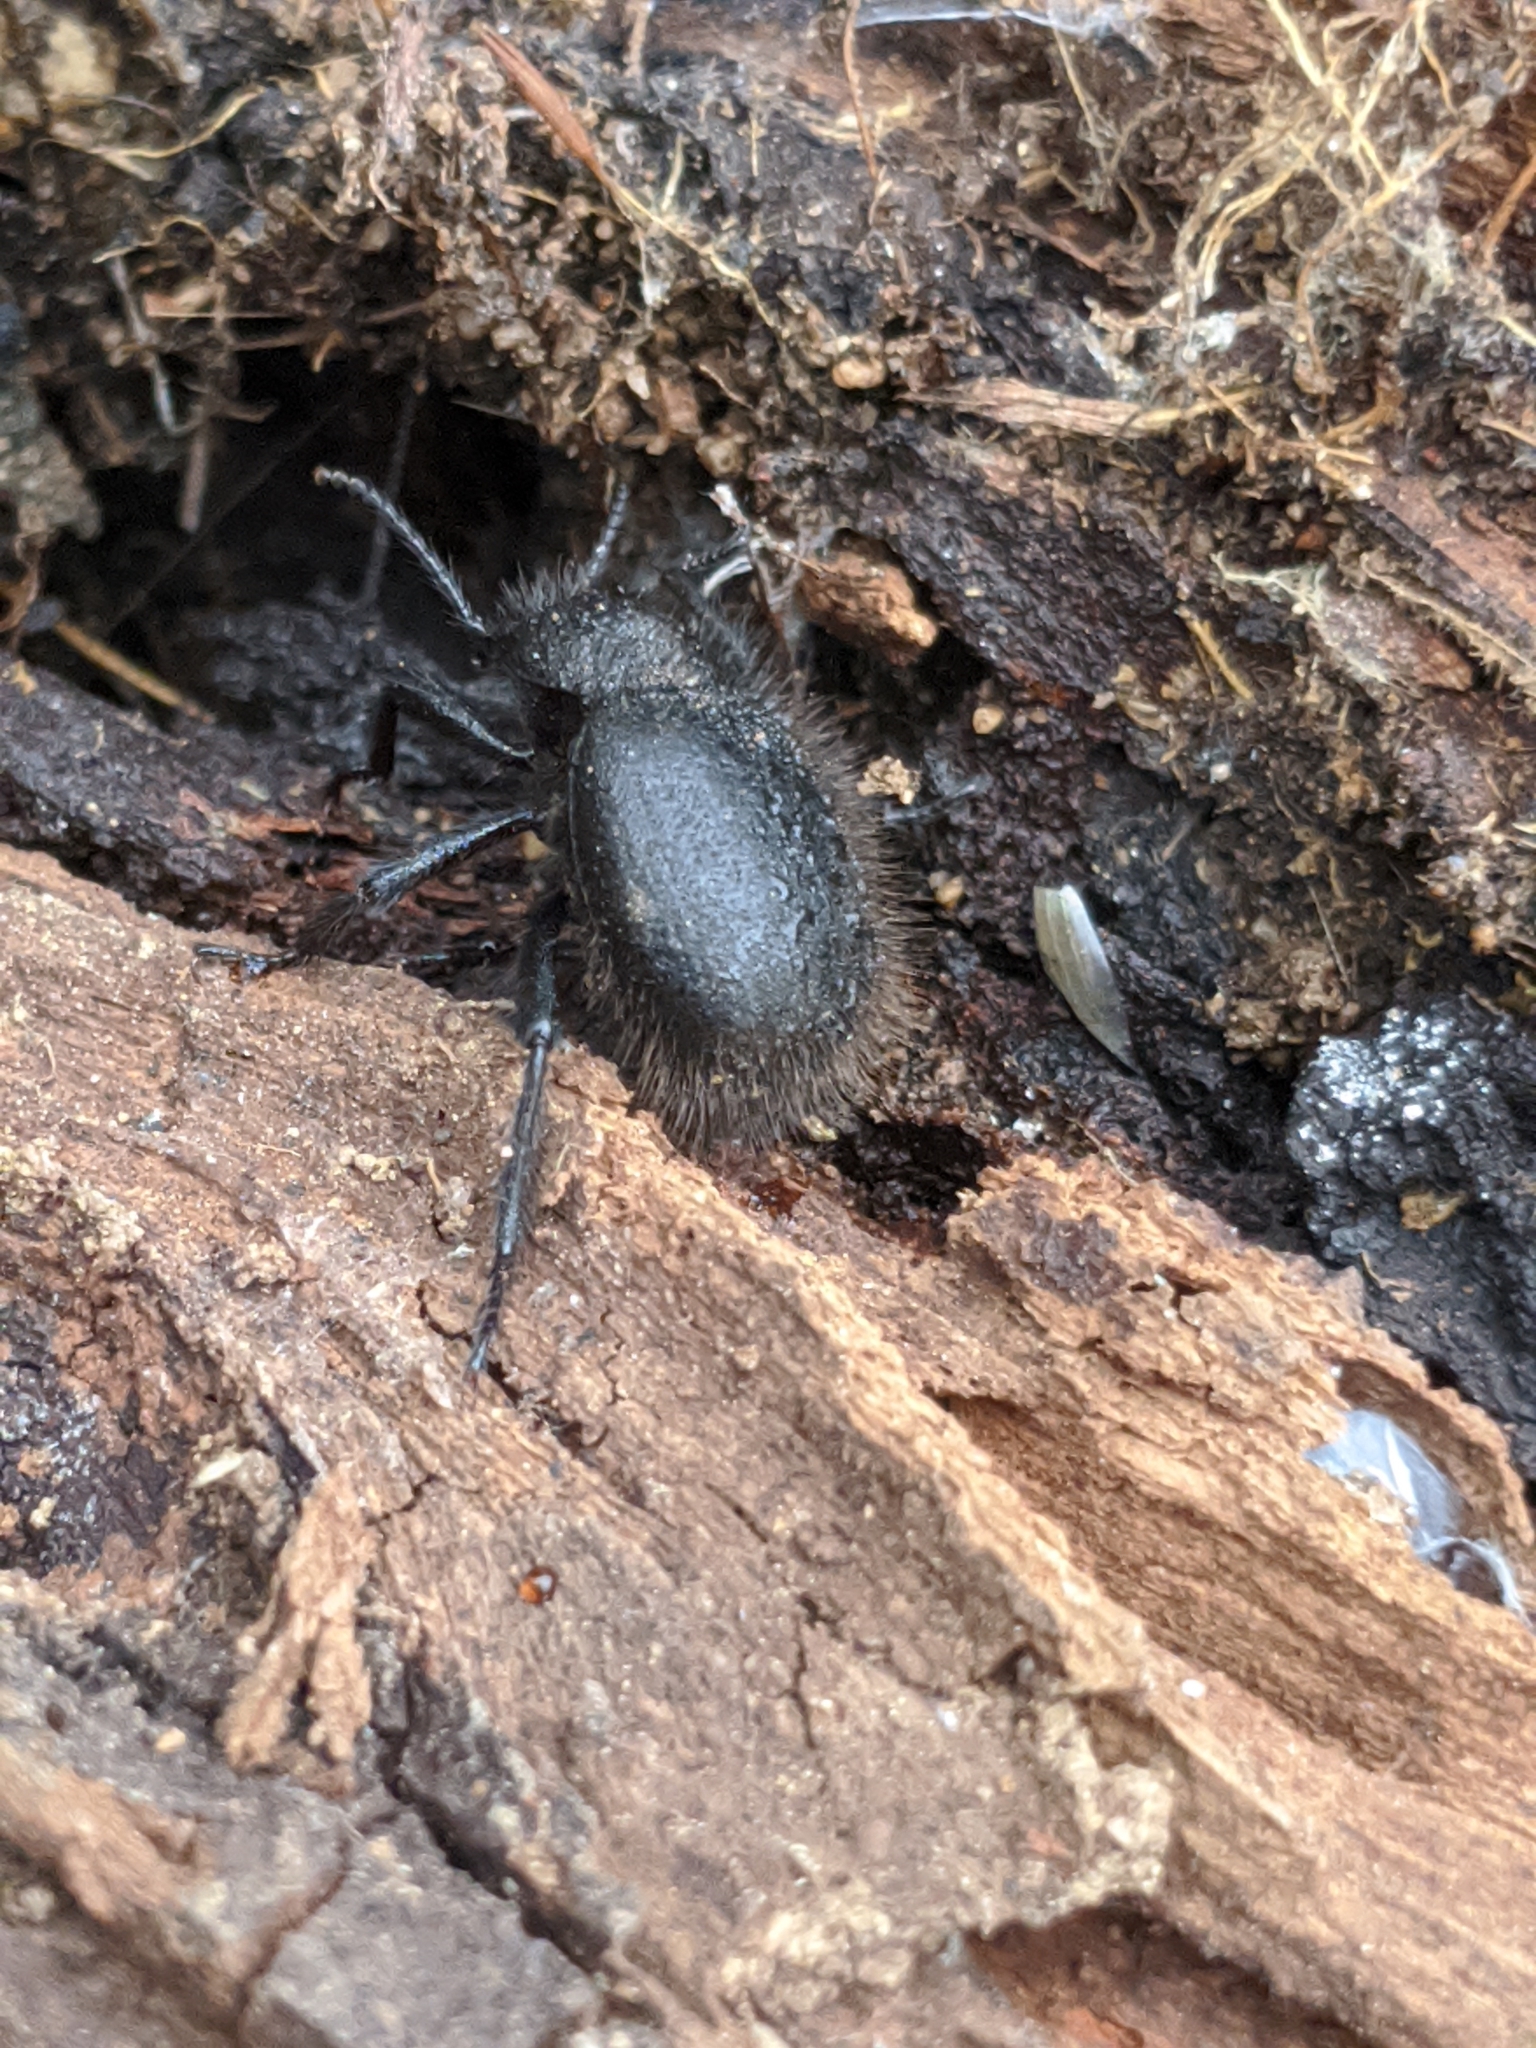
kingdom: Animalia
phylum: Arthropoda
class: Insecta
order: Coleoptera
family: Tenebrionidae
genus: Eleodes
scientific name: Eleodes osculans
